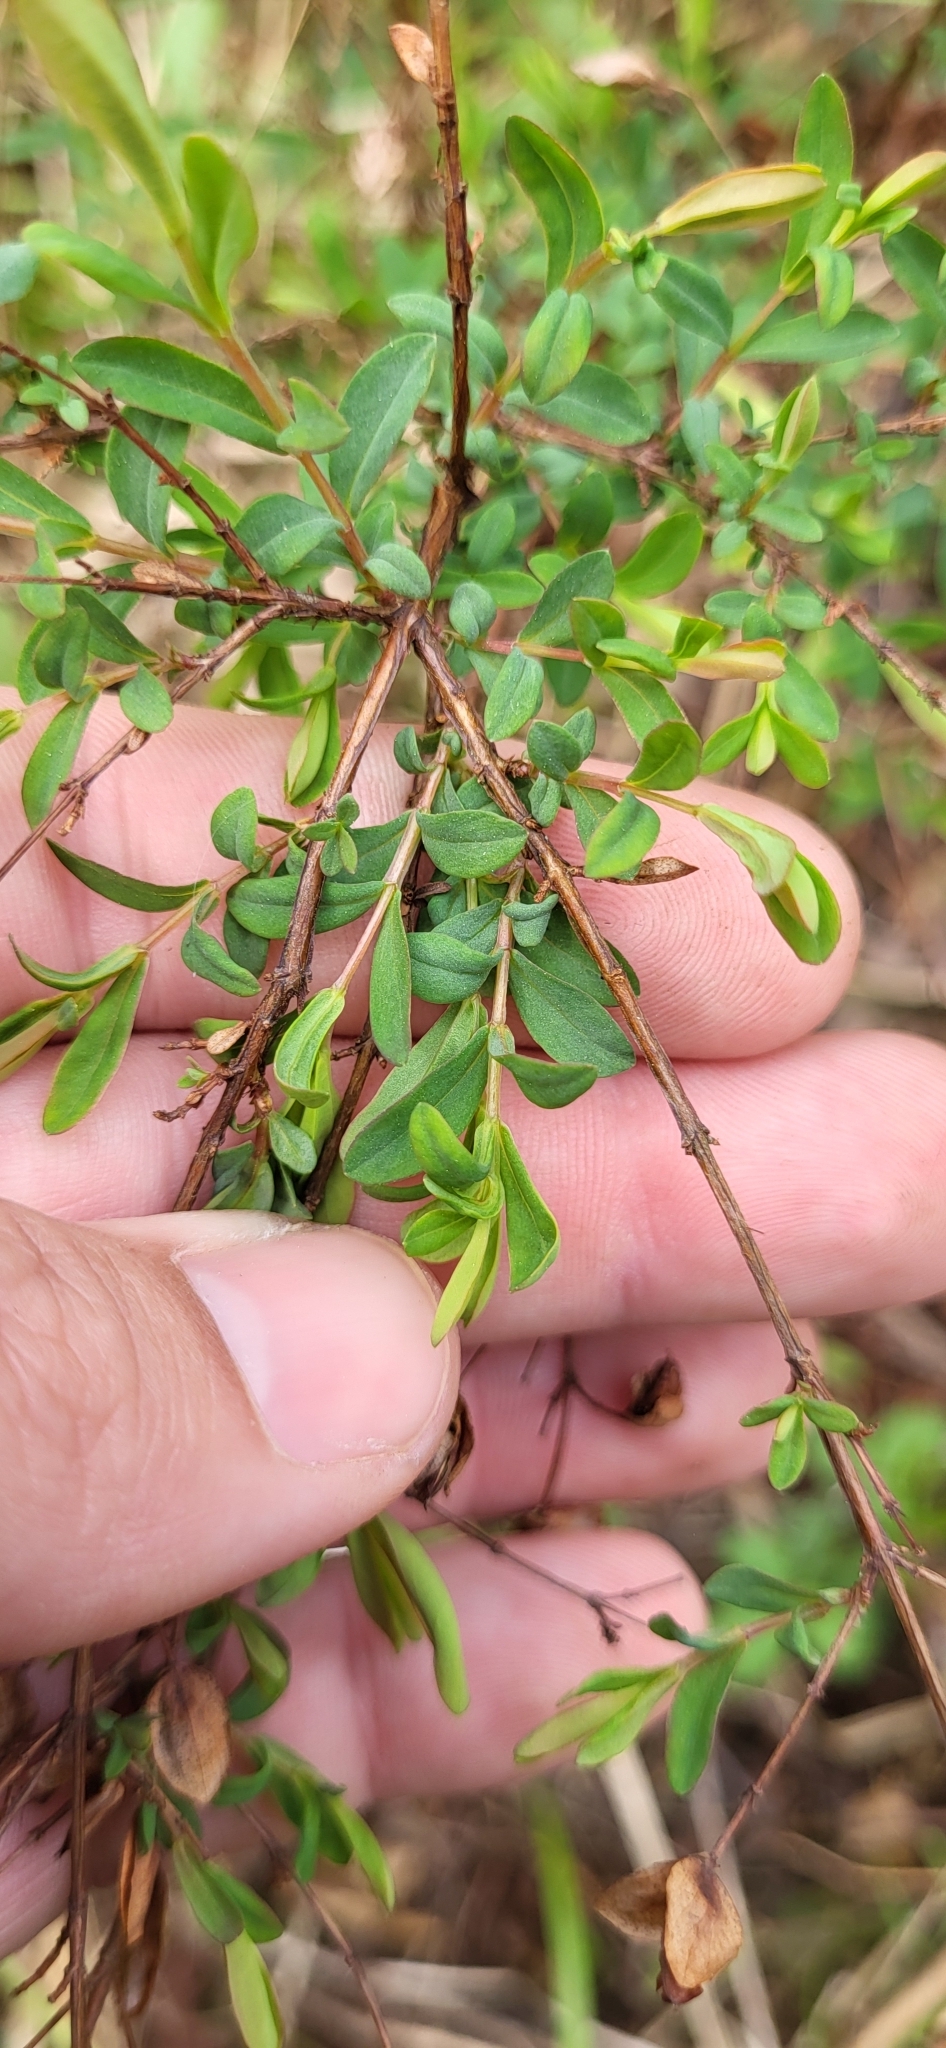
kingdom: Plantae
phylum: Tracheophyta
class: Magnoliopsida
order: Malpighiales
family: Hypericaceae
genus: Hypericum
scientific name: Hypericum hypericoides
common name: St. andrew's cross
